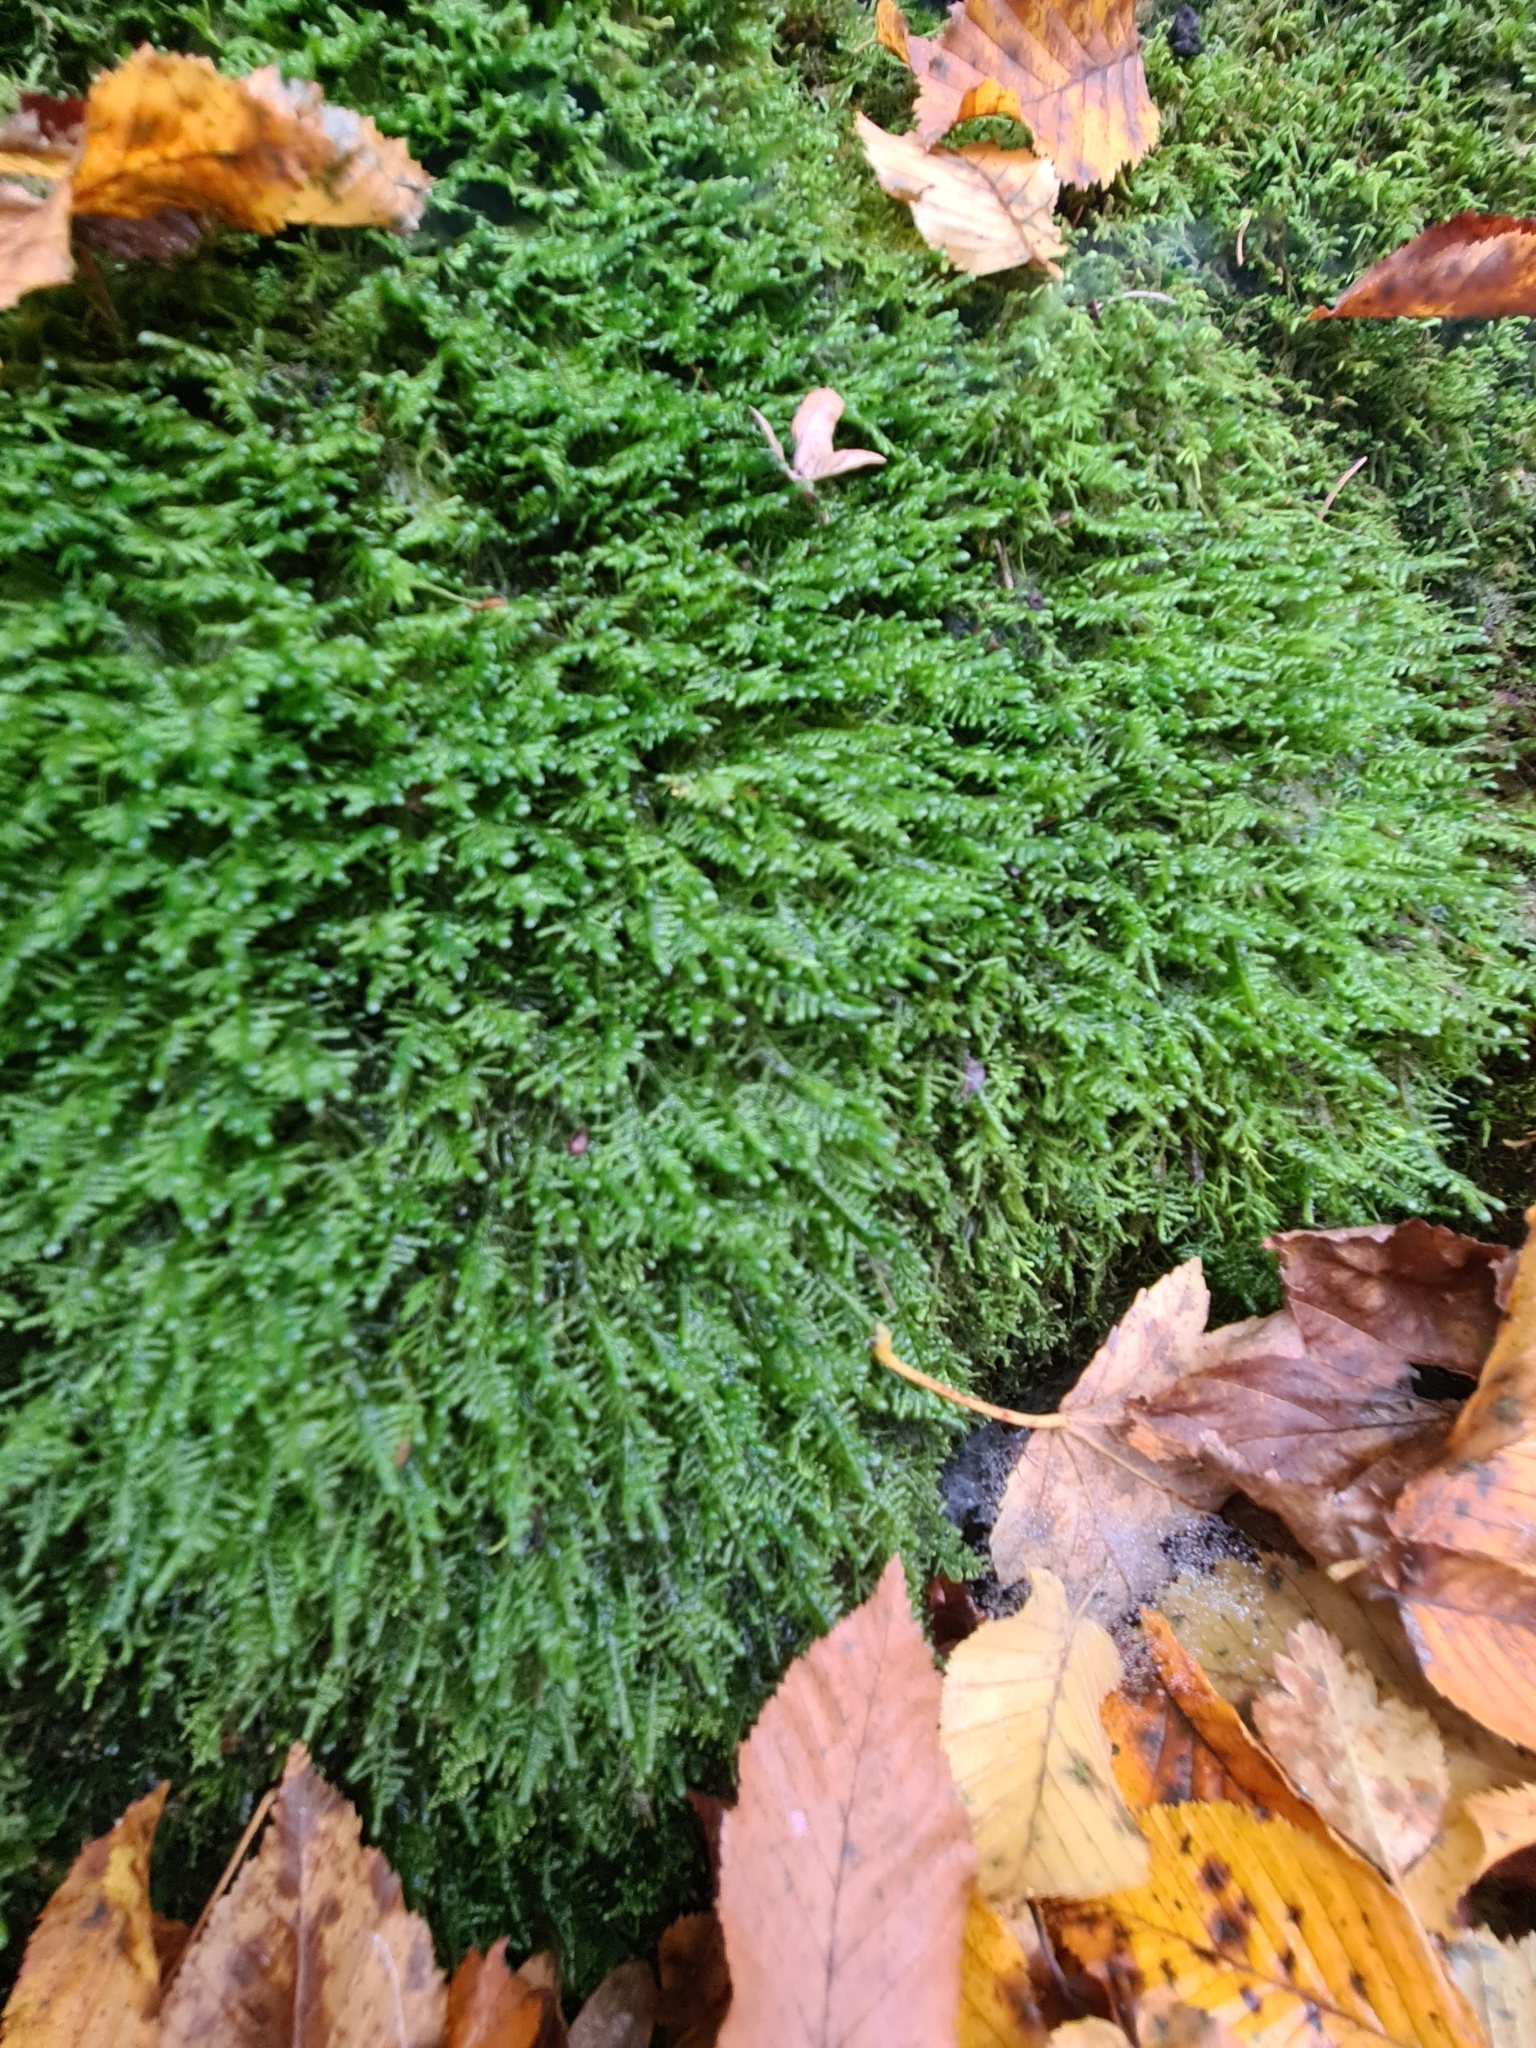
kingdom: Plantae
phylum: Bryophyta
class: Bryopsida
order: Hypnales
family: Neckeraceae
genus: Alleniella
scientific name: Alleniella complanata
